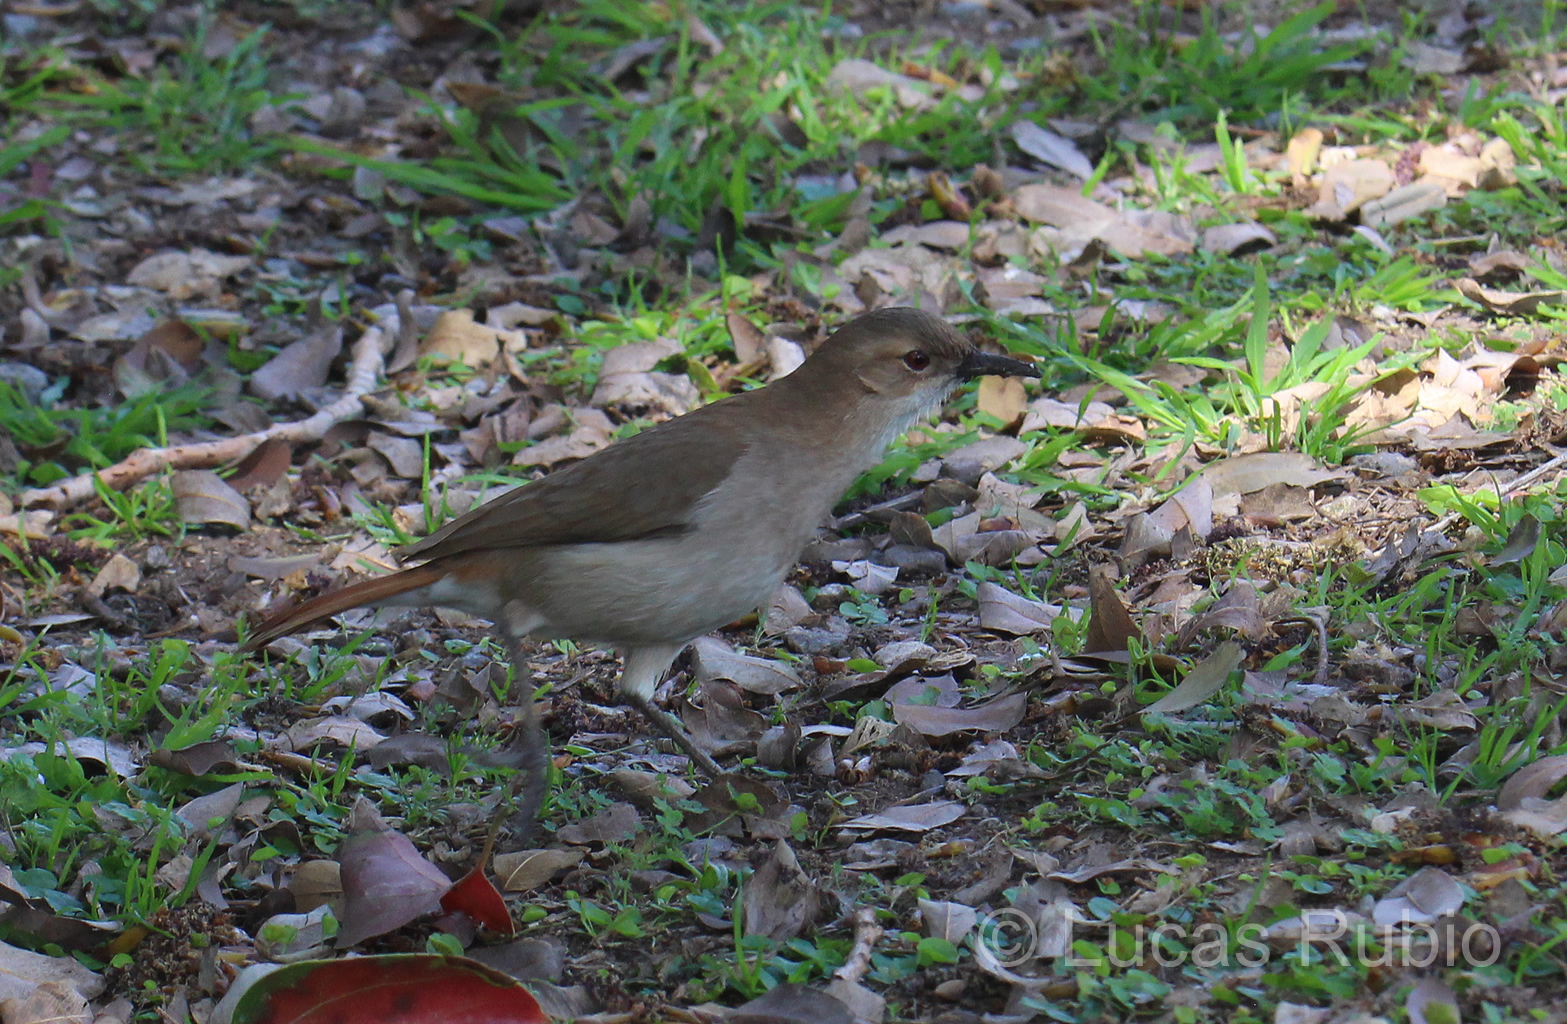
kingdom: Animalia
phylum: Chordata
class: Aves
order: Passeriformes
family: Furnariidae
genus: Furnarius
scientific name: Furnarius rufus
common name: Rufous hornero
